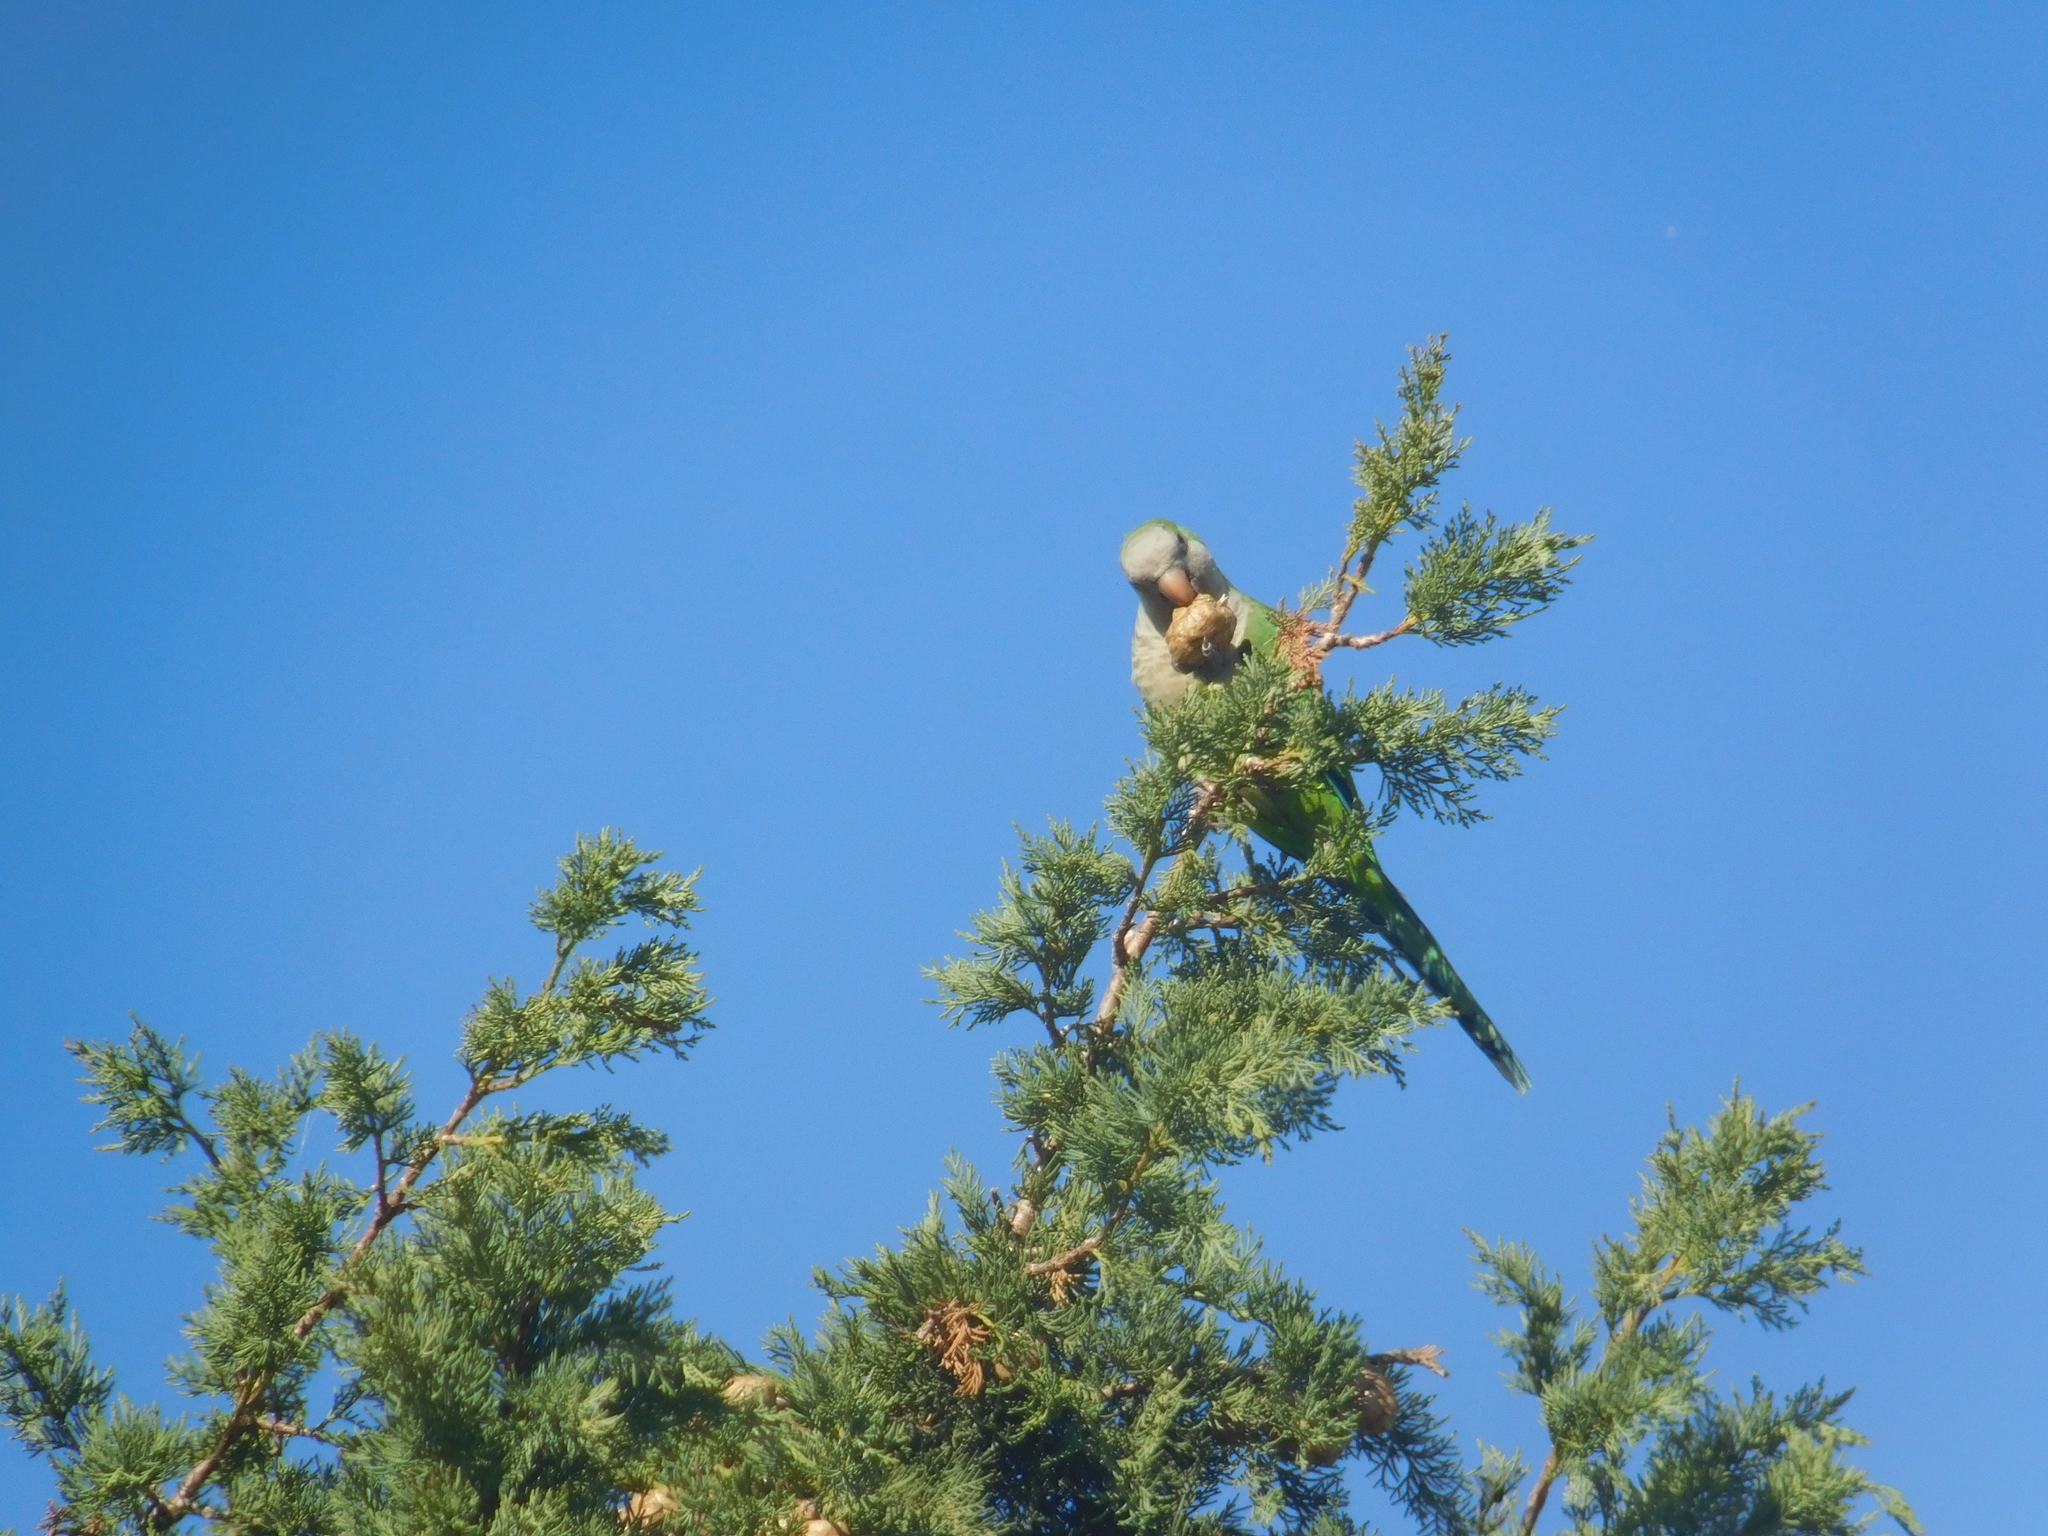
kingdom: Animalia
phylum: Chordata
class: Aves
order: Psittaciformes
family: Psittacidae
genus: Myiopsitta
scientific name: Myiopsitta monachus
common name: Monk parakeet
